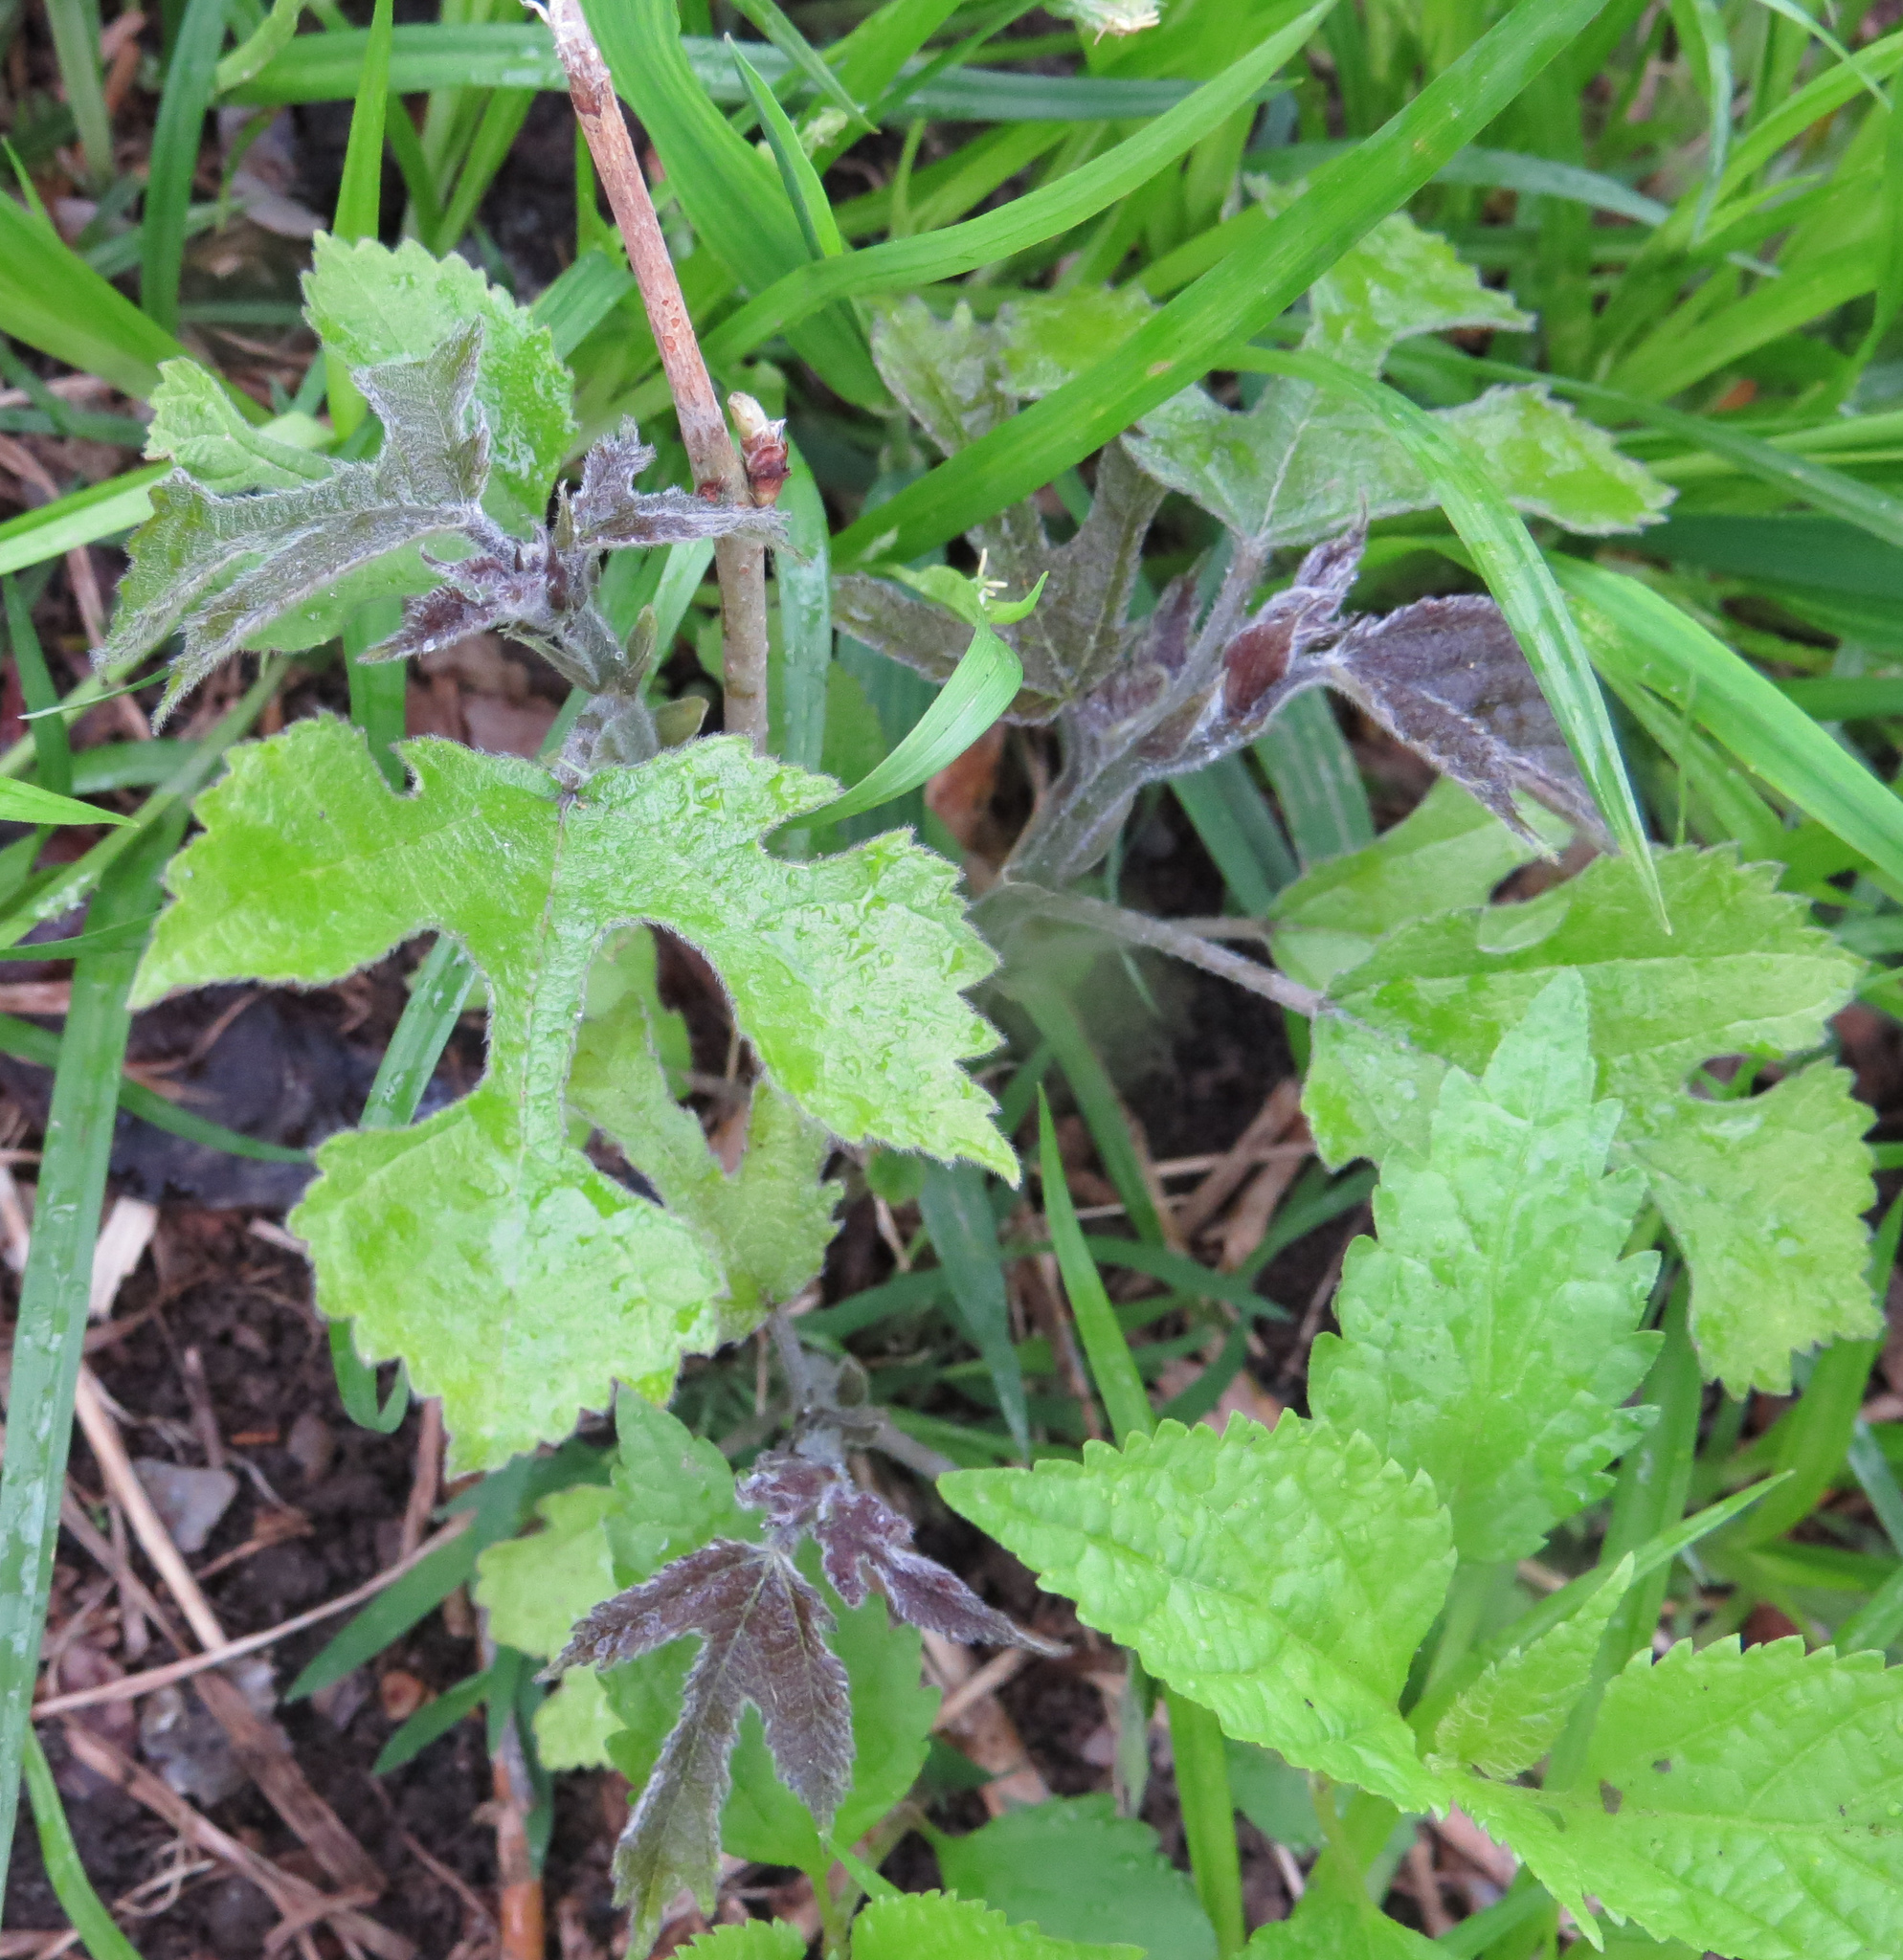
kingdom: Plantae
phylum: Tracheophyta
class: Magnoliopsida
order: Rosales
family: Moraceae
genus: Broussonetia
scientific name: Broussonetia papyrifera
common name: Paper mulberry
